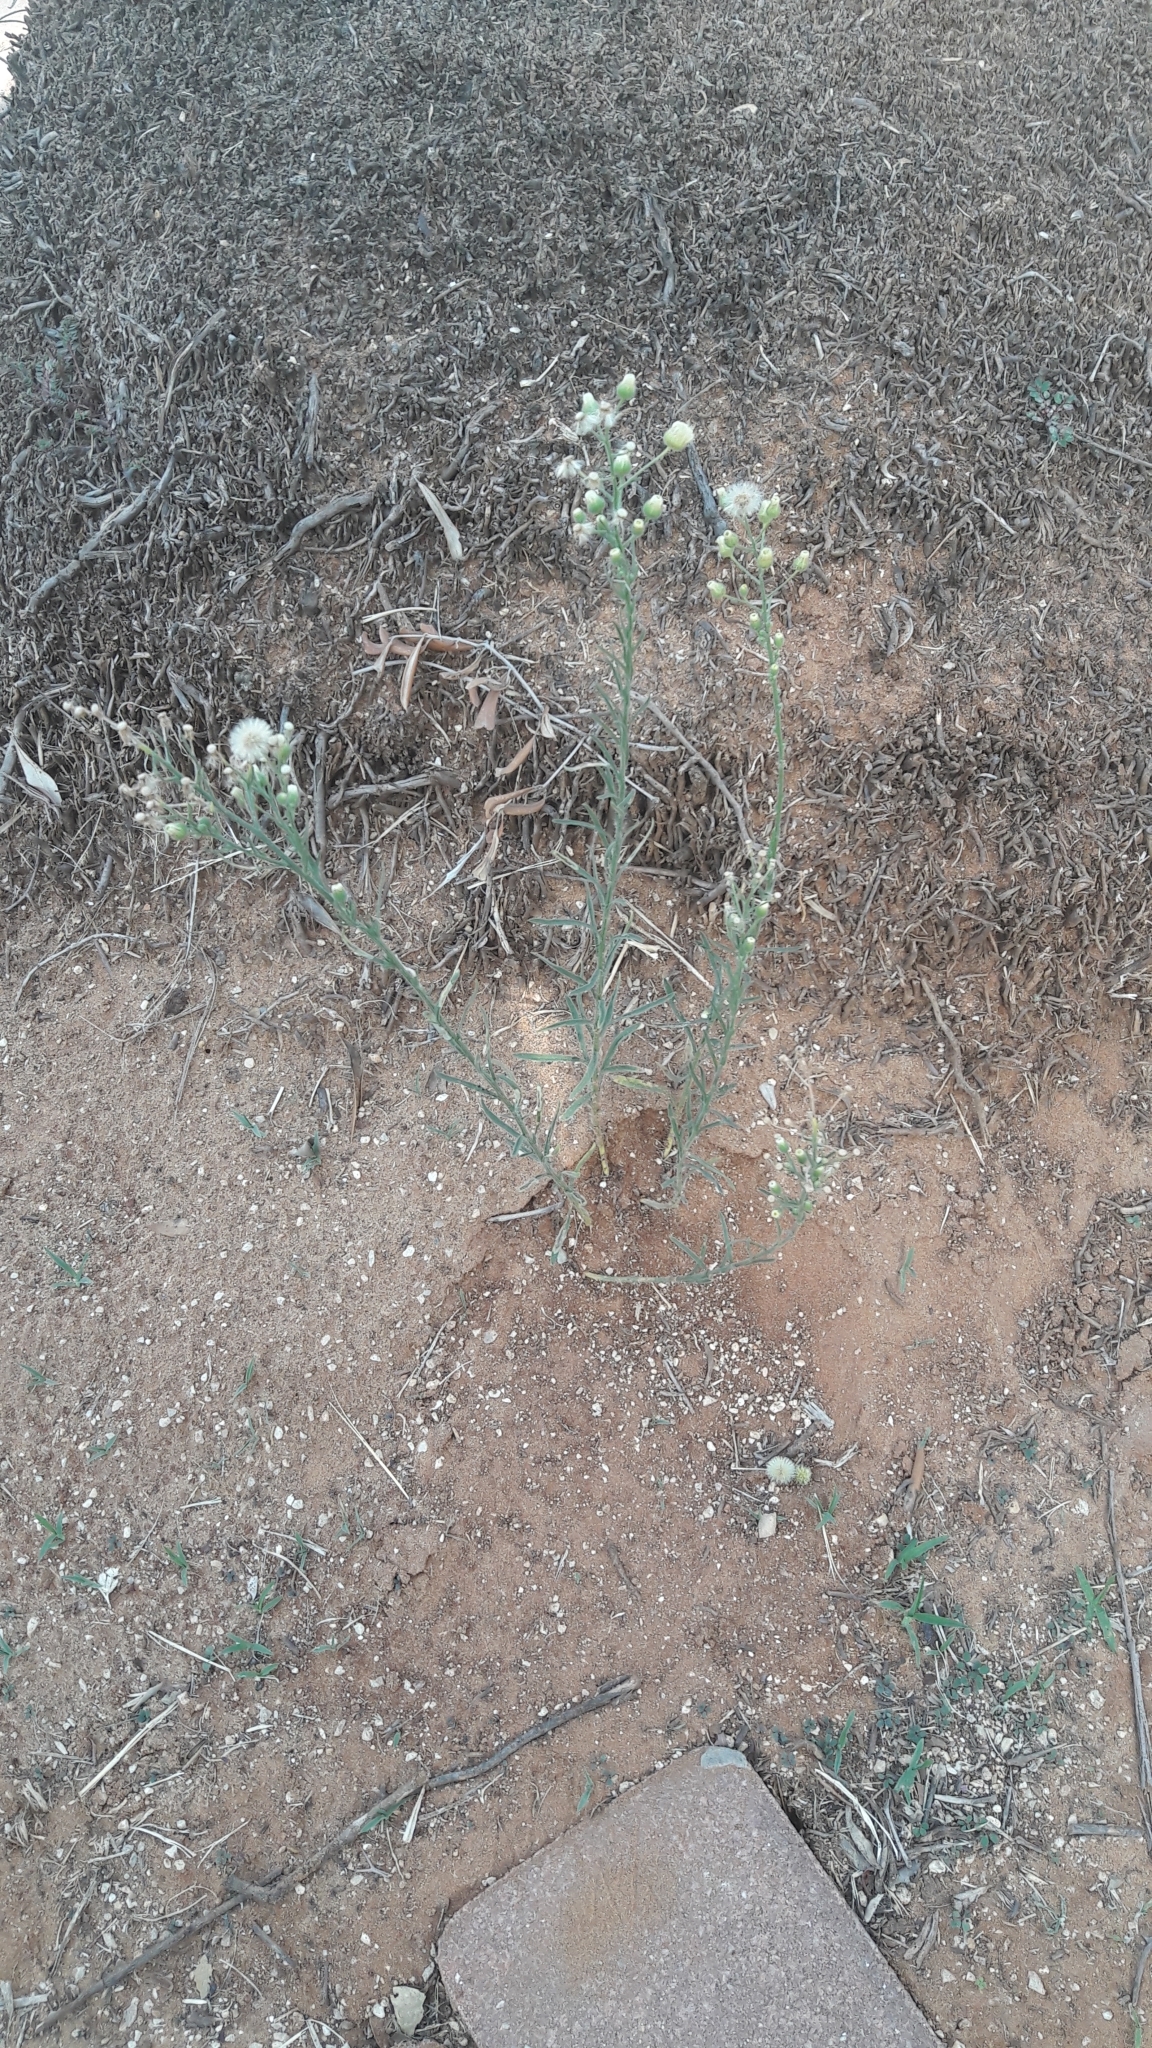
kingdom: Plantae
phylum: Tracheophyta
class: Magnoliopsida
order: Asterales
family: Asteraceae
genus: Erigeron
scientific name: Erigeron canadensis
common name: Canadian fleabane
